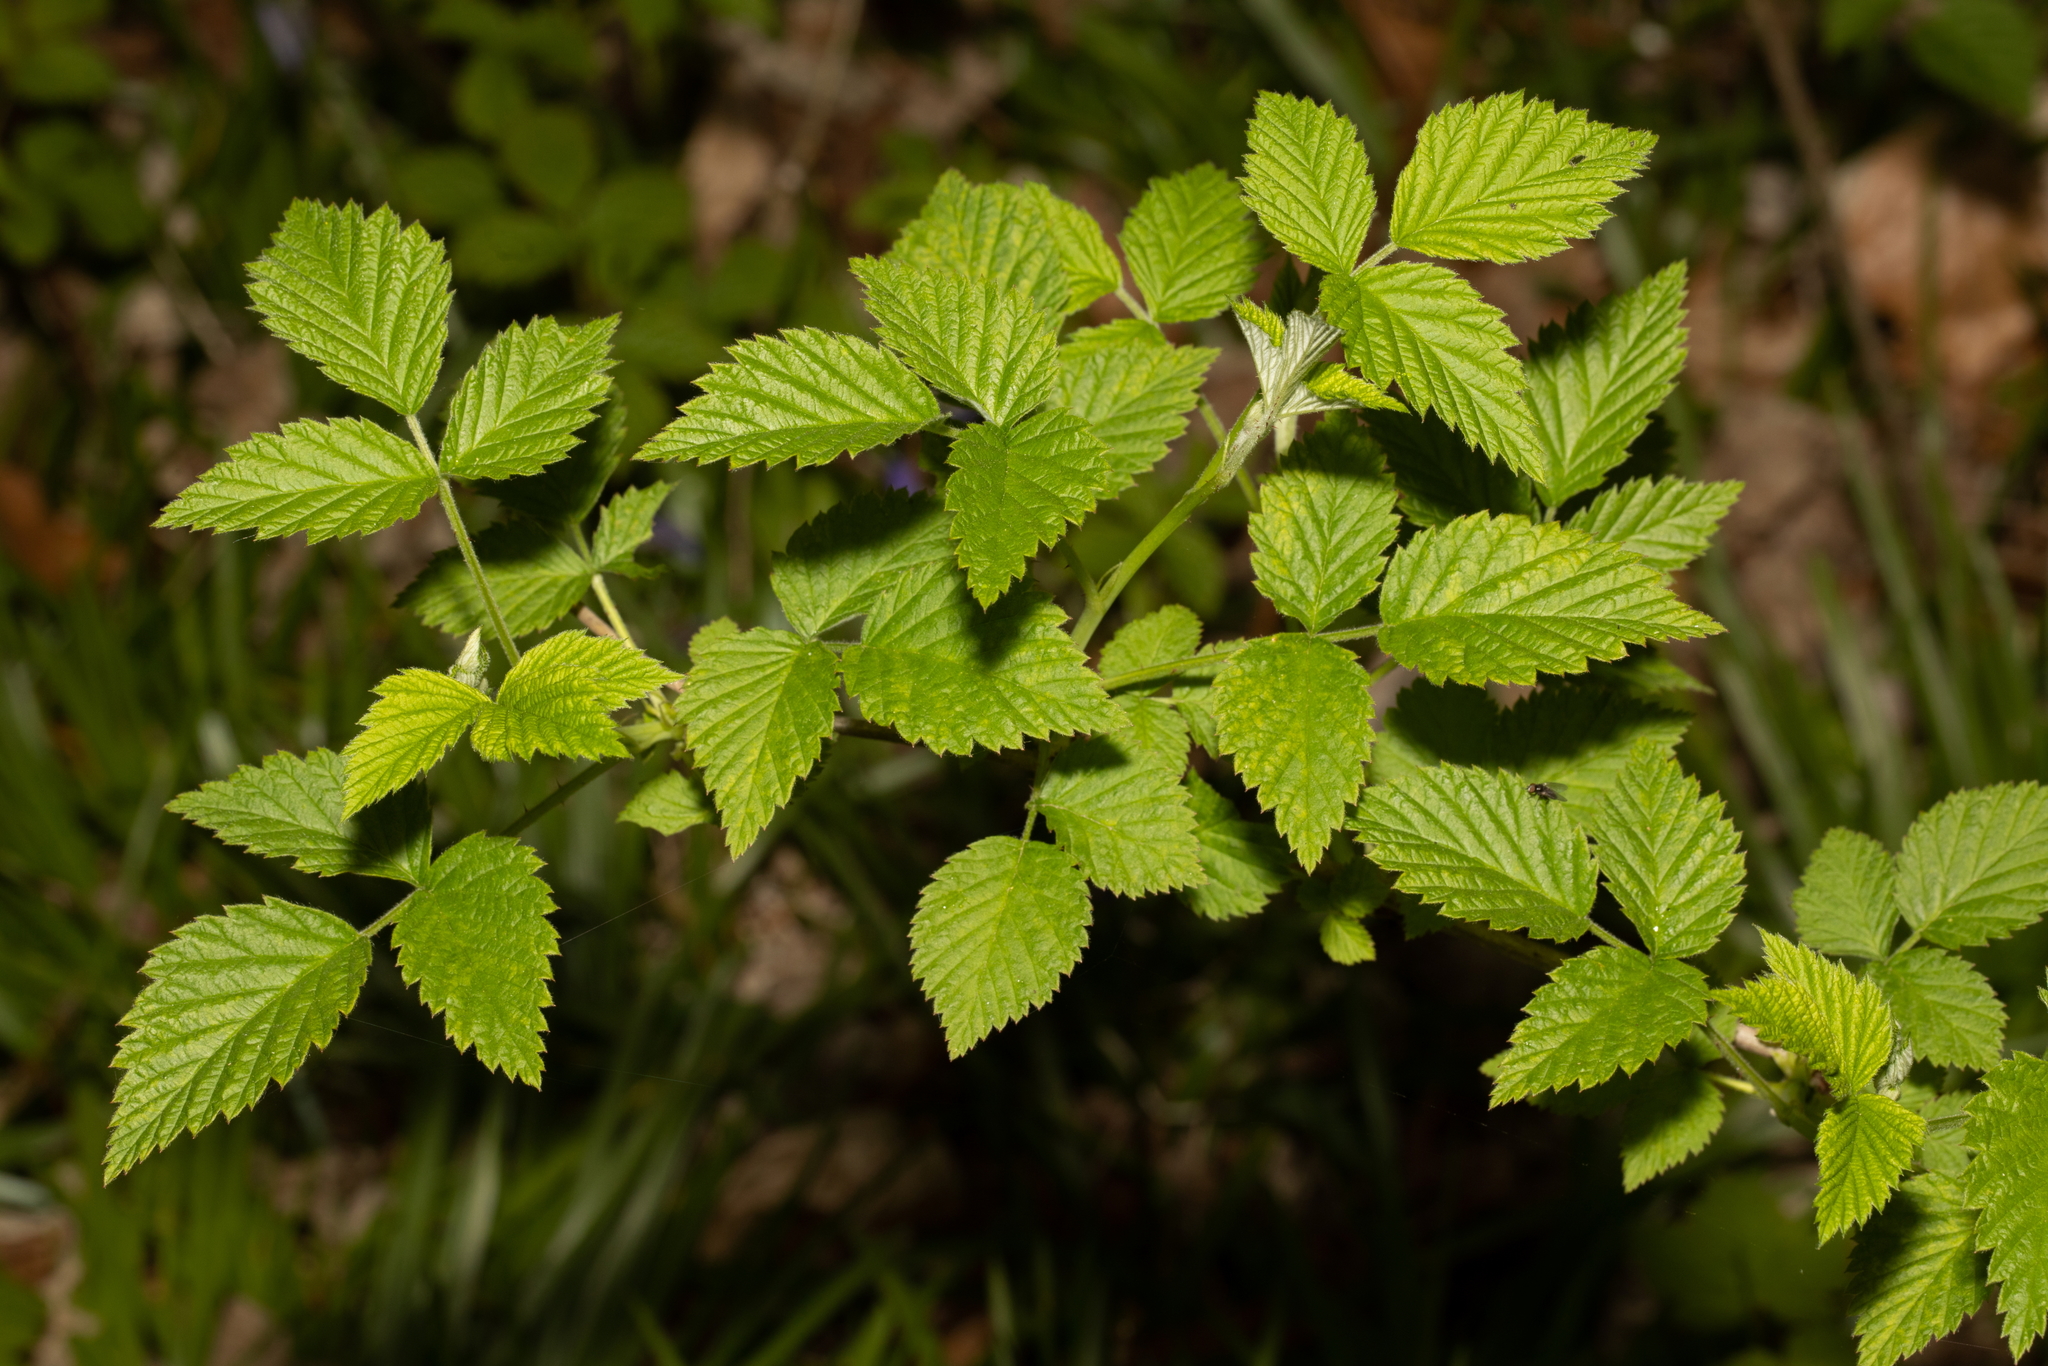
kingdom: Plantae
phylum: Tracheophyta
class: Magnoliopsida
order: Rosales
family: Rosaceae
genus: Rubus
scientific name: Rubus idaeus
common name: Raspberry
